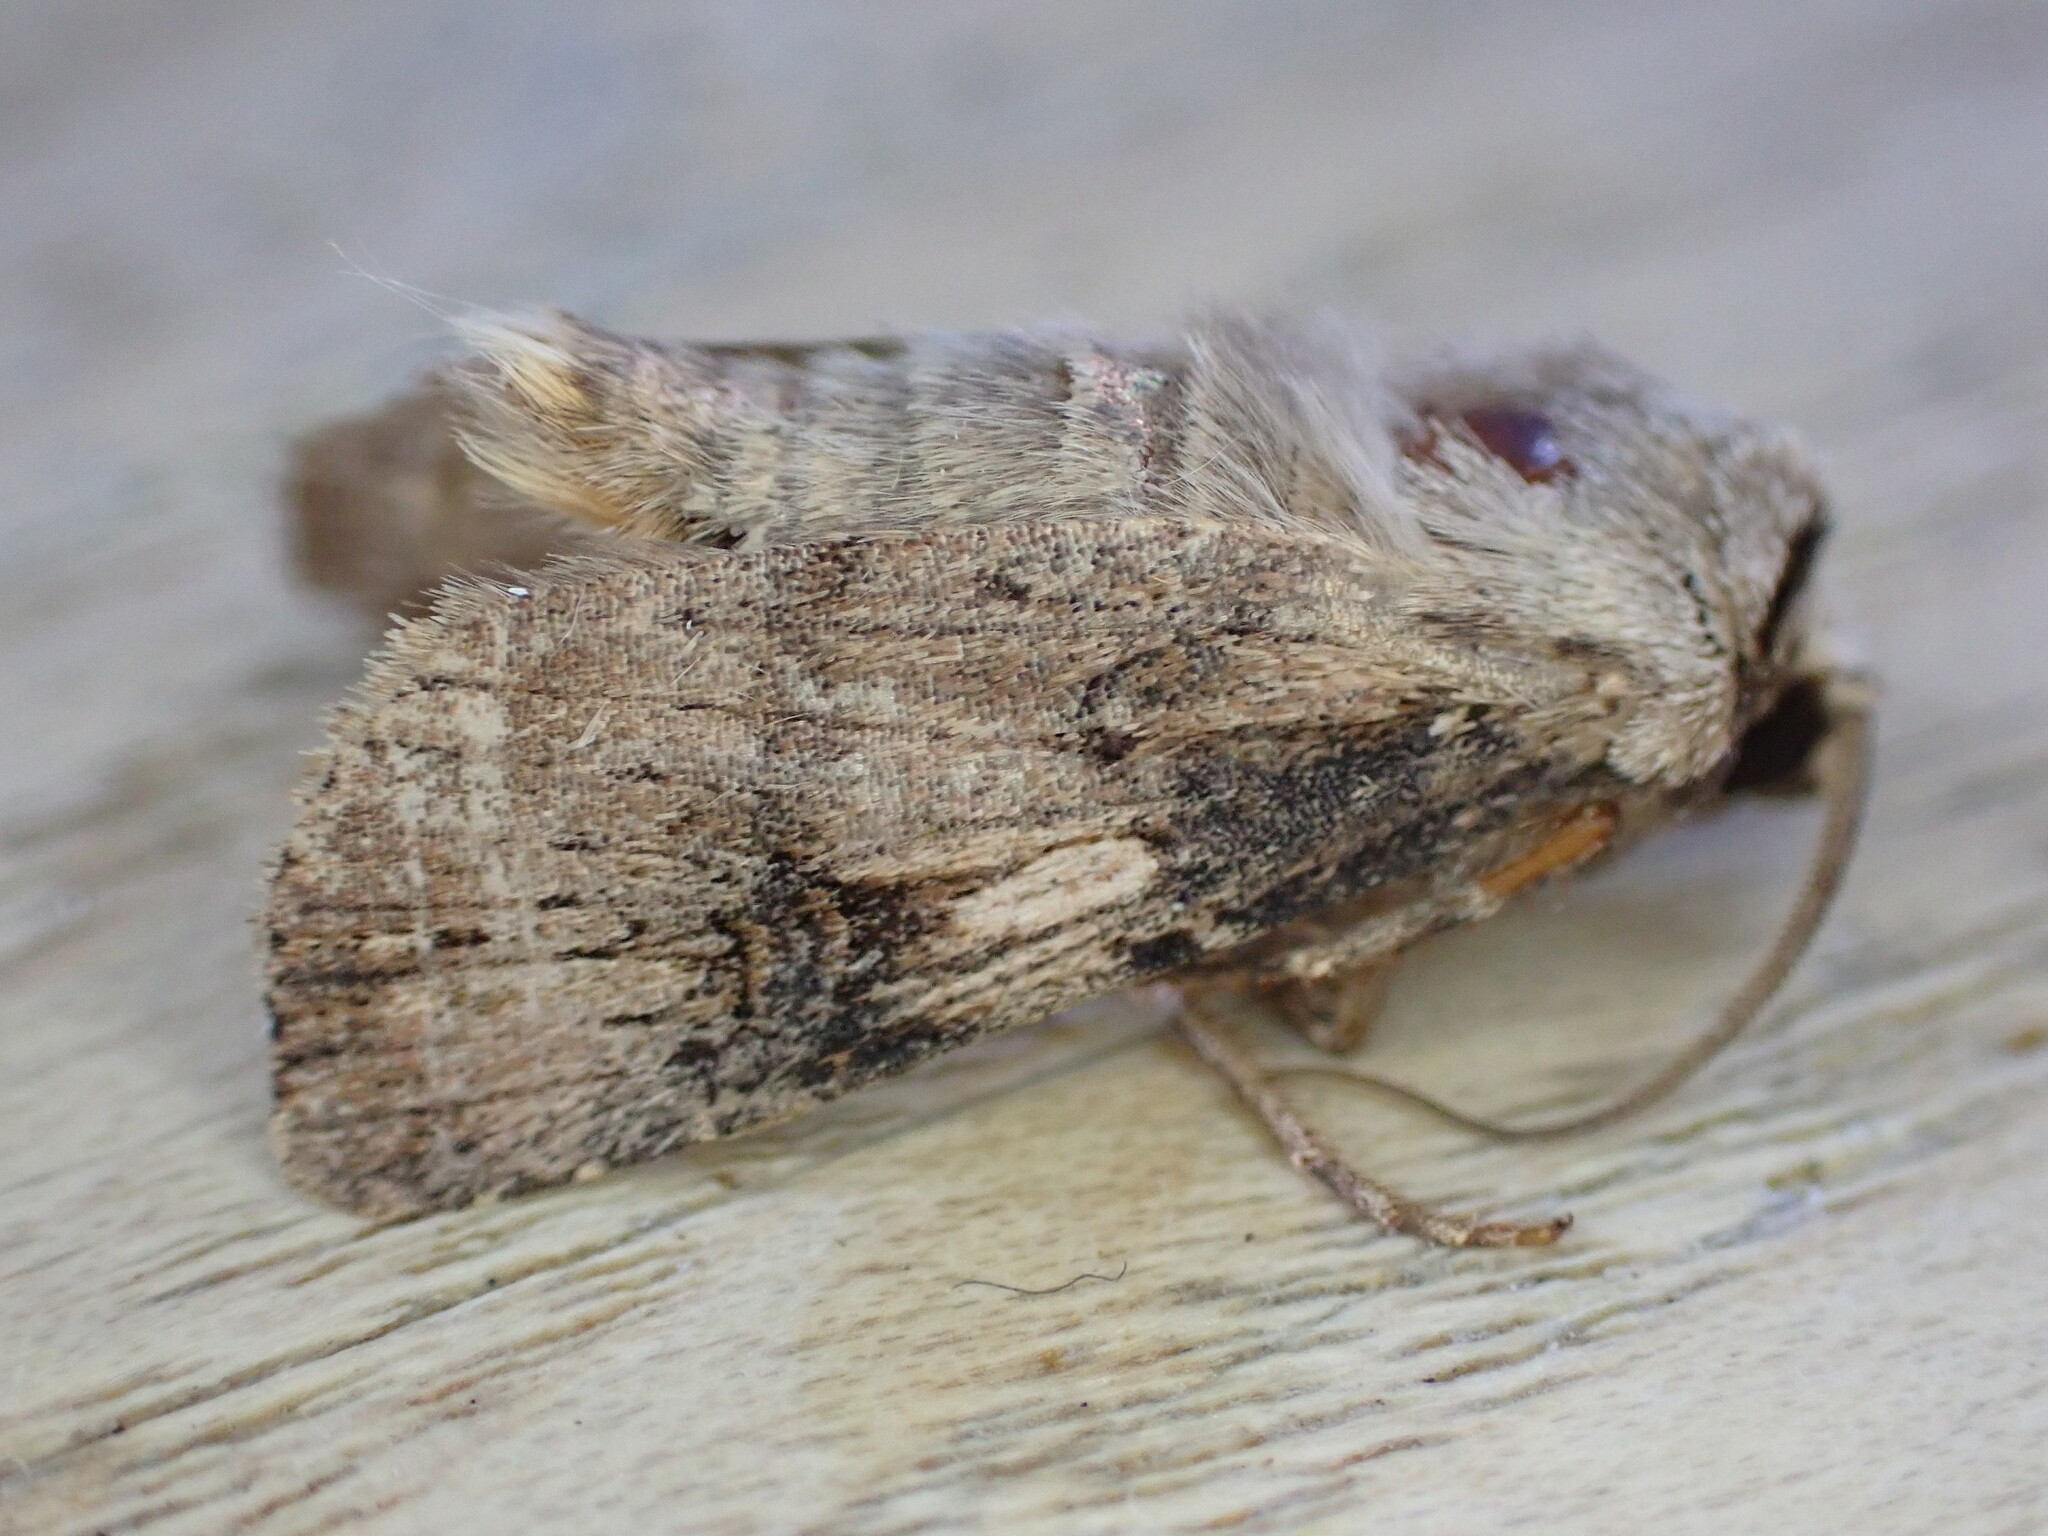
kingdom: Animalia
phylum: Arthropoda
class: Insecta
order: Lepidoptera
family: Noctuidae
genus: Agrotis
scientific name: Agrotis puta
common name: Shuttle-shaped dart
